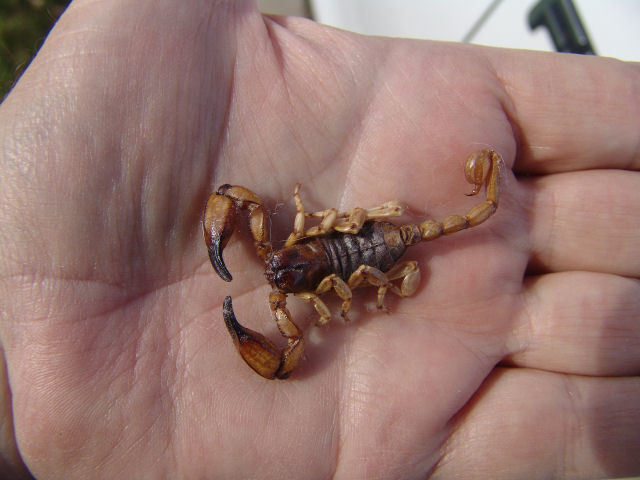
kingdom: Animalia
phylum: Arthropoda
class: Arachnida
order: Scorpiones
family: Chactidae
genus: Anuroctonus
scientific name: Anuroctonus pococki
